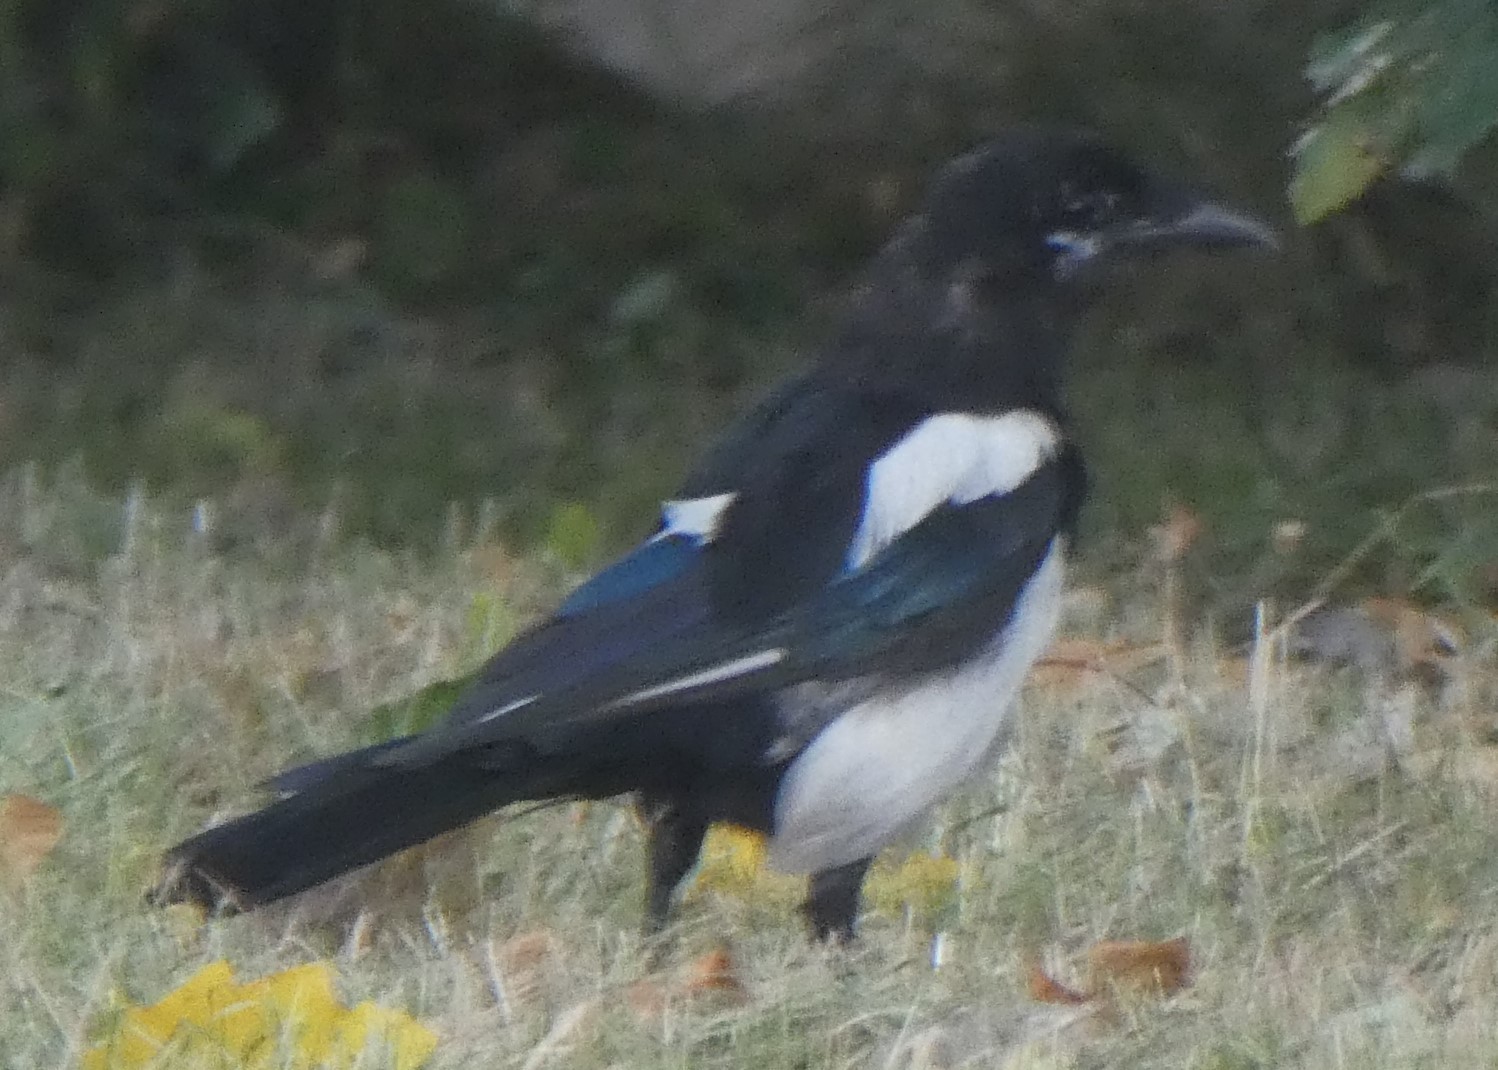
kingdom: Animalia
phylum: Chordata
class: Aves
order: Passeriformes
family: Corvidae
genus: Pica
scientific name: Pica pica
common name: Eurasian magpie
